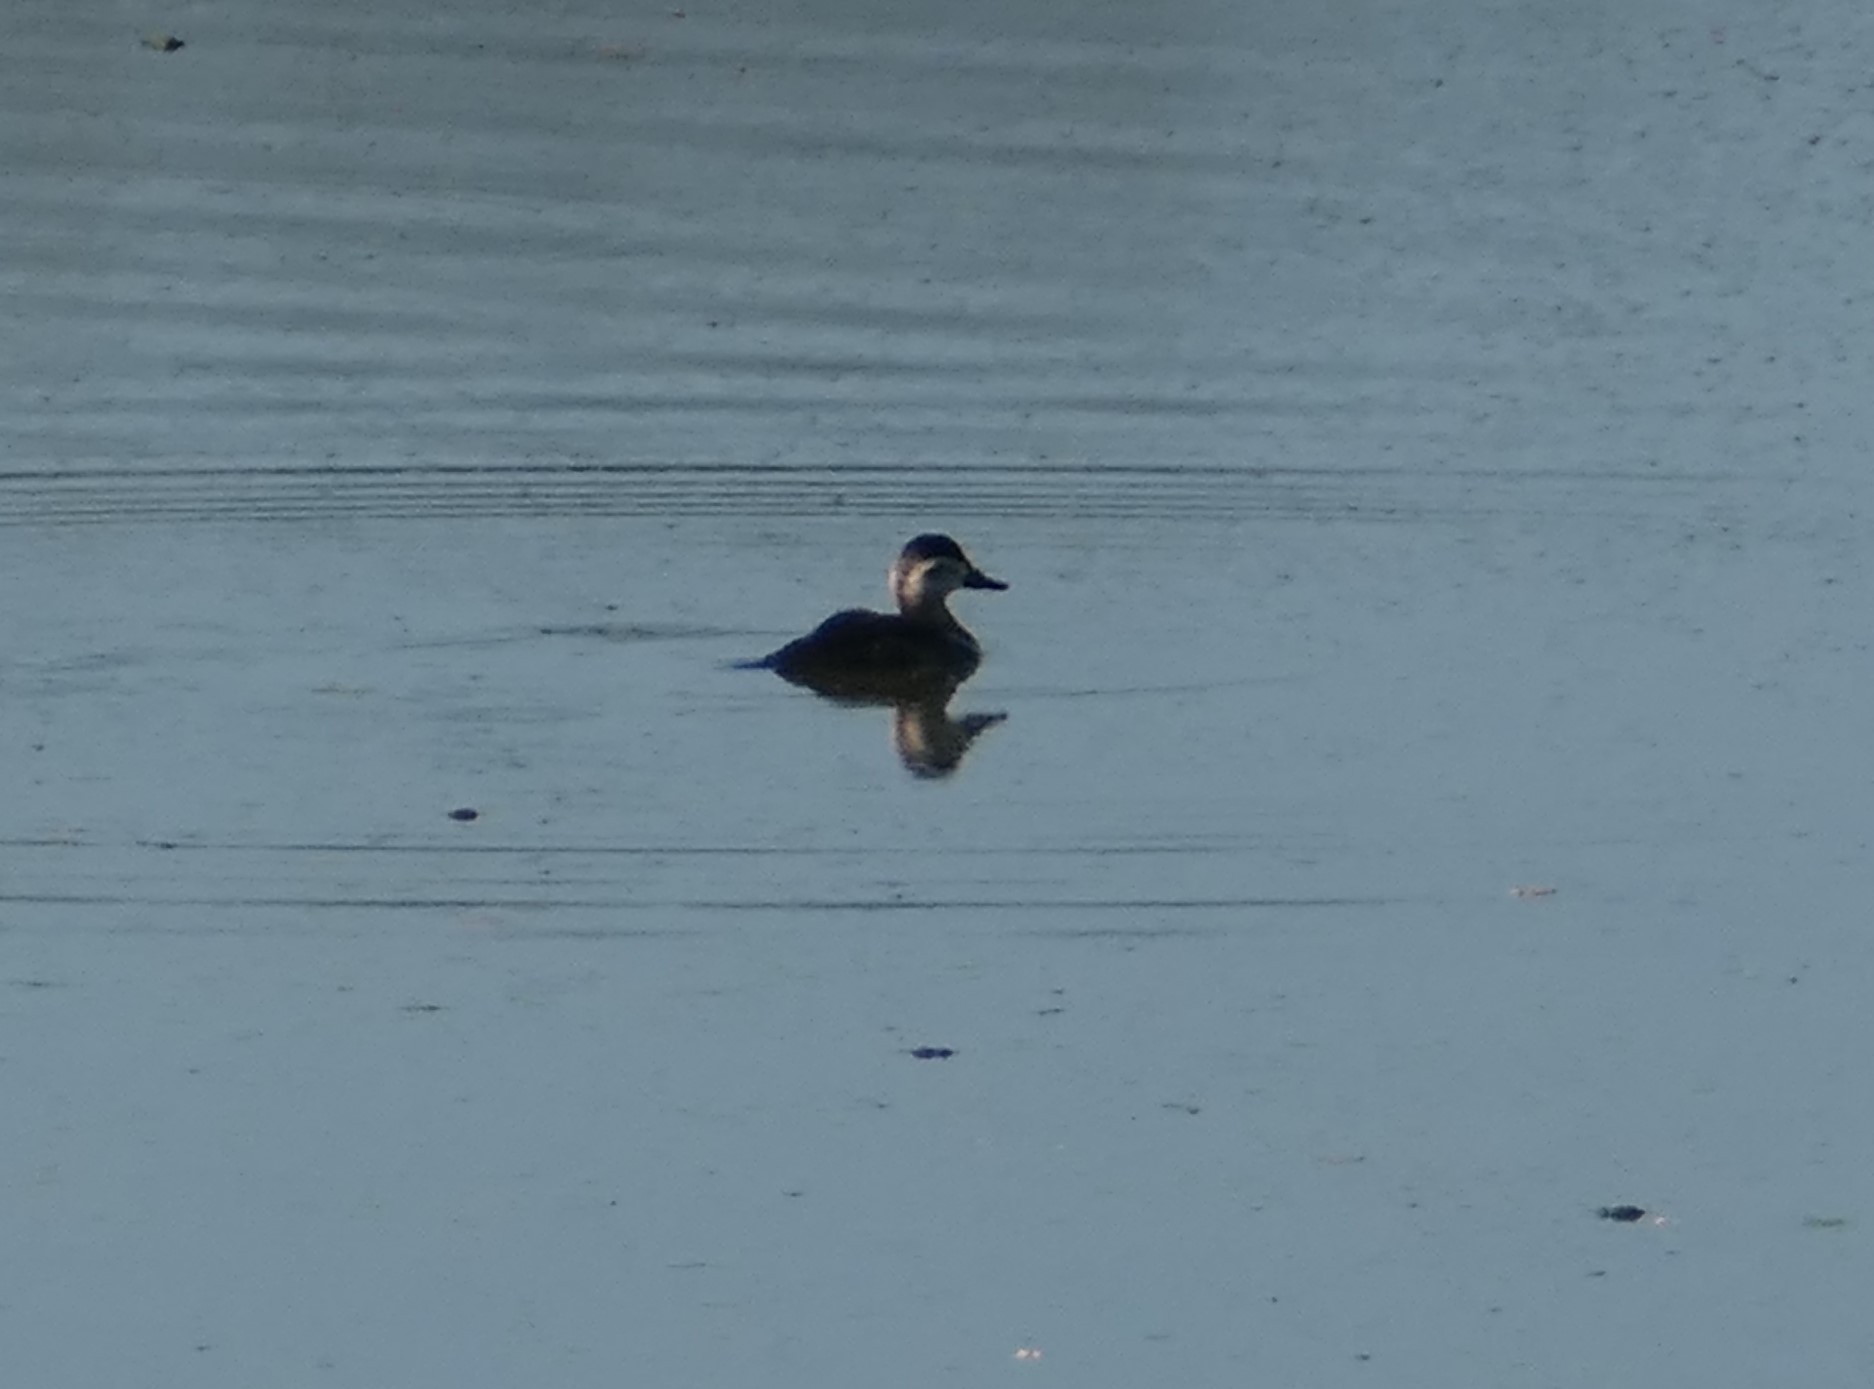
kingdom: Animalia
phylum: Chordata
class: Aves
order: Anseriformes
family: Anatidae
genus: Oxyura
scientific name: Oxyura jamaicensis
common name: Ruddy duck
